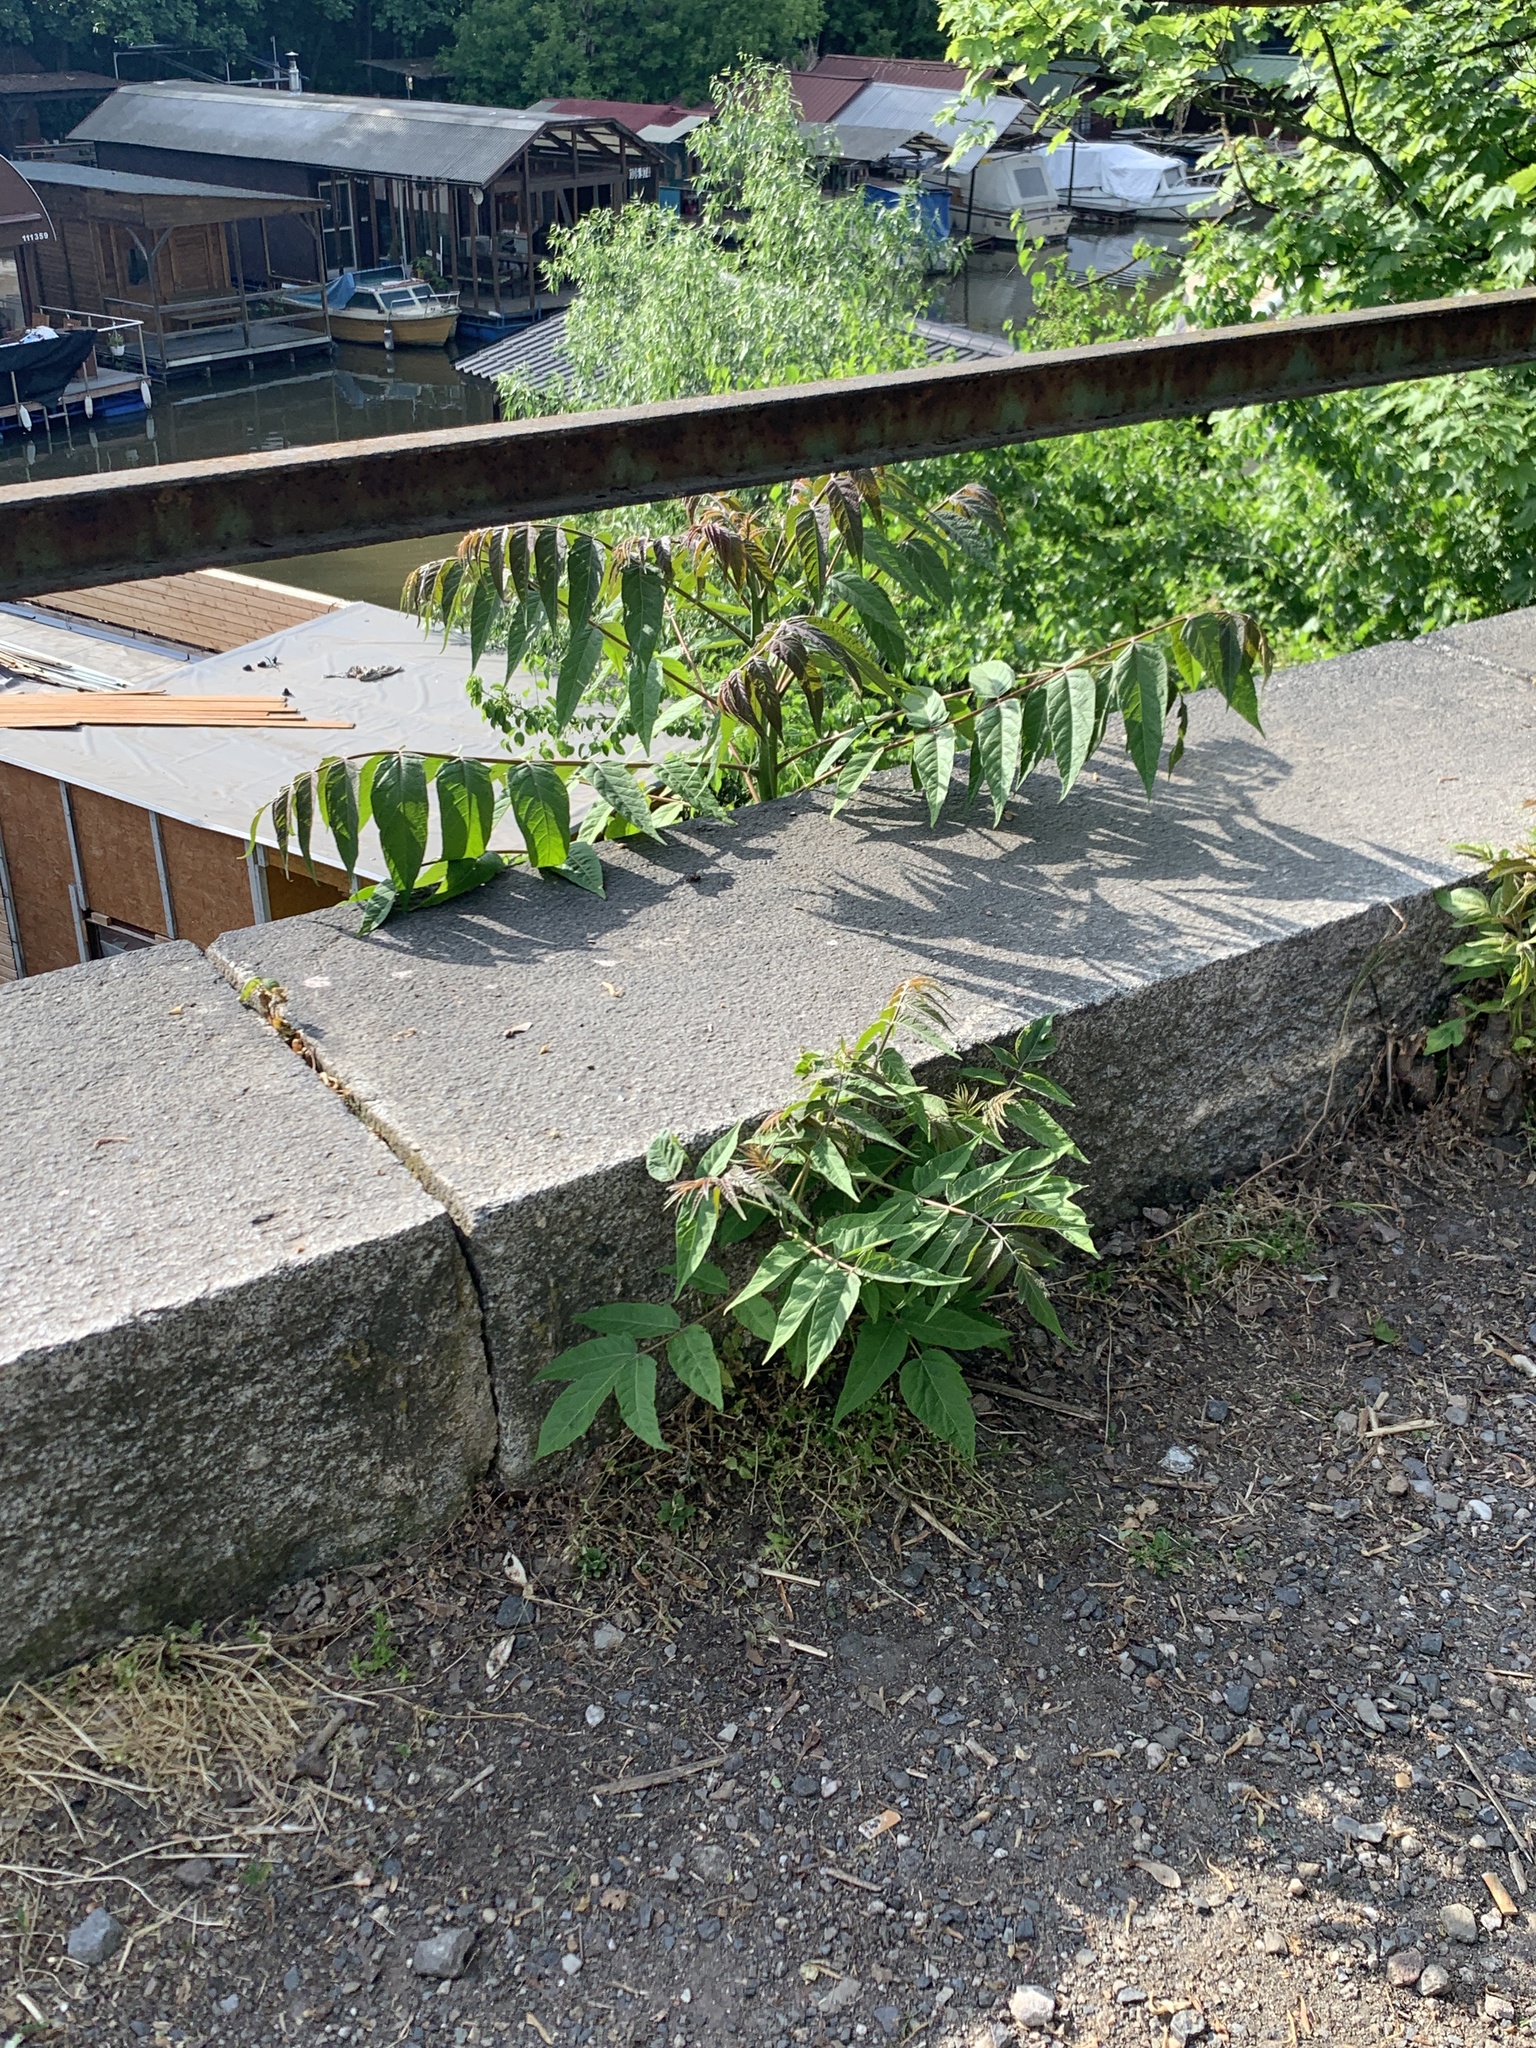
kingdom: Plantae
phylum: Tracheophyta
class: Magnoliopsida
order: Sapindales
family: Simaroubaceae
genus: Ailanthus
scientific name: Ailanthus altissima
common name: Tree-of-heaven
